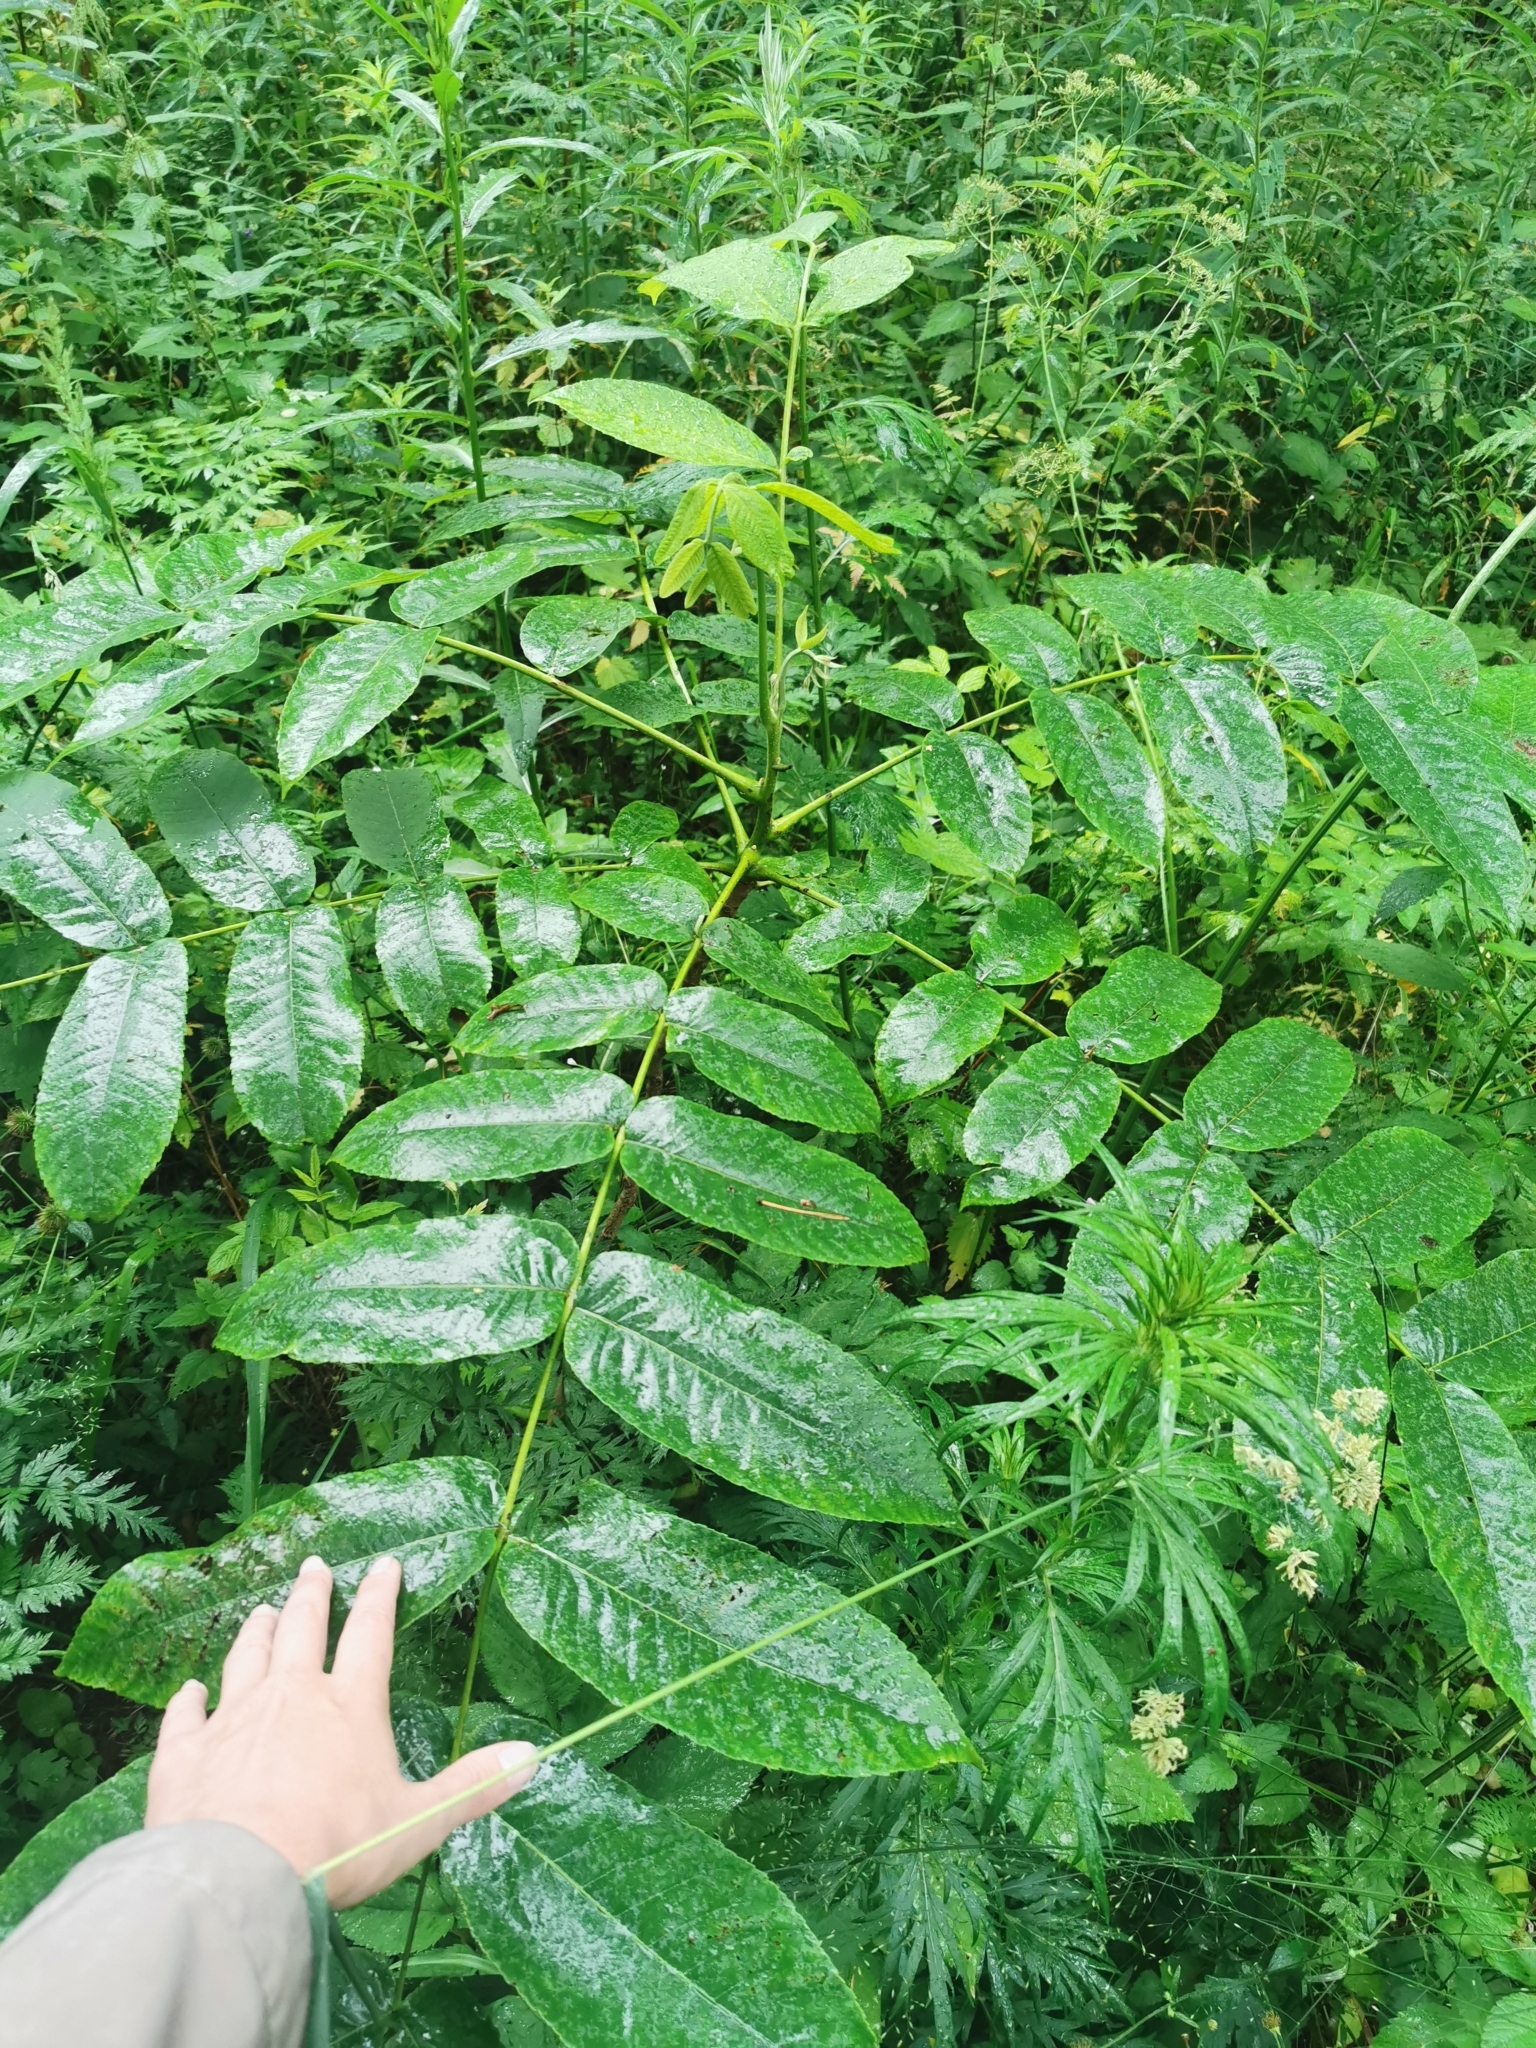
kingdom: Plantae
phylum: Tracheophyta
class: Magnoliopsida
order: Fagales
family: Juglandaceae
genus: Juglans
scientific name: Juglans mandshurica
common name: Manchurian walnut
